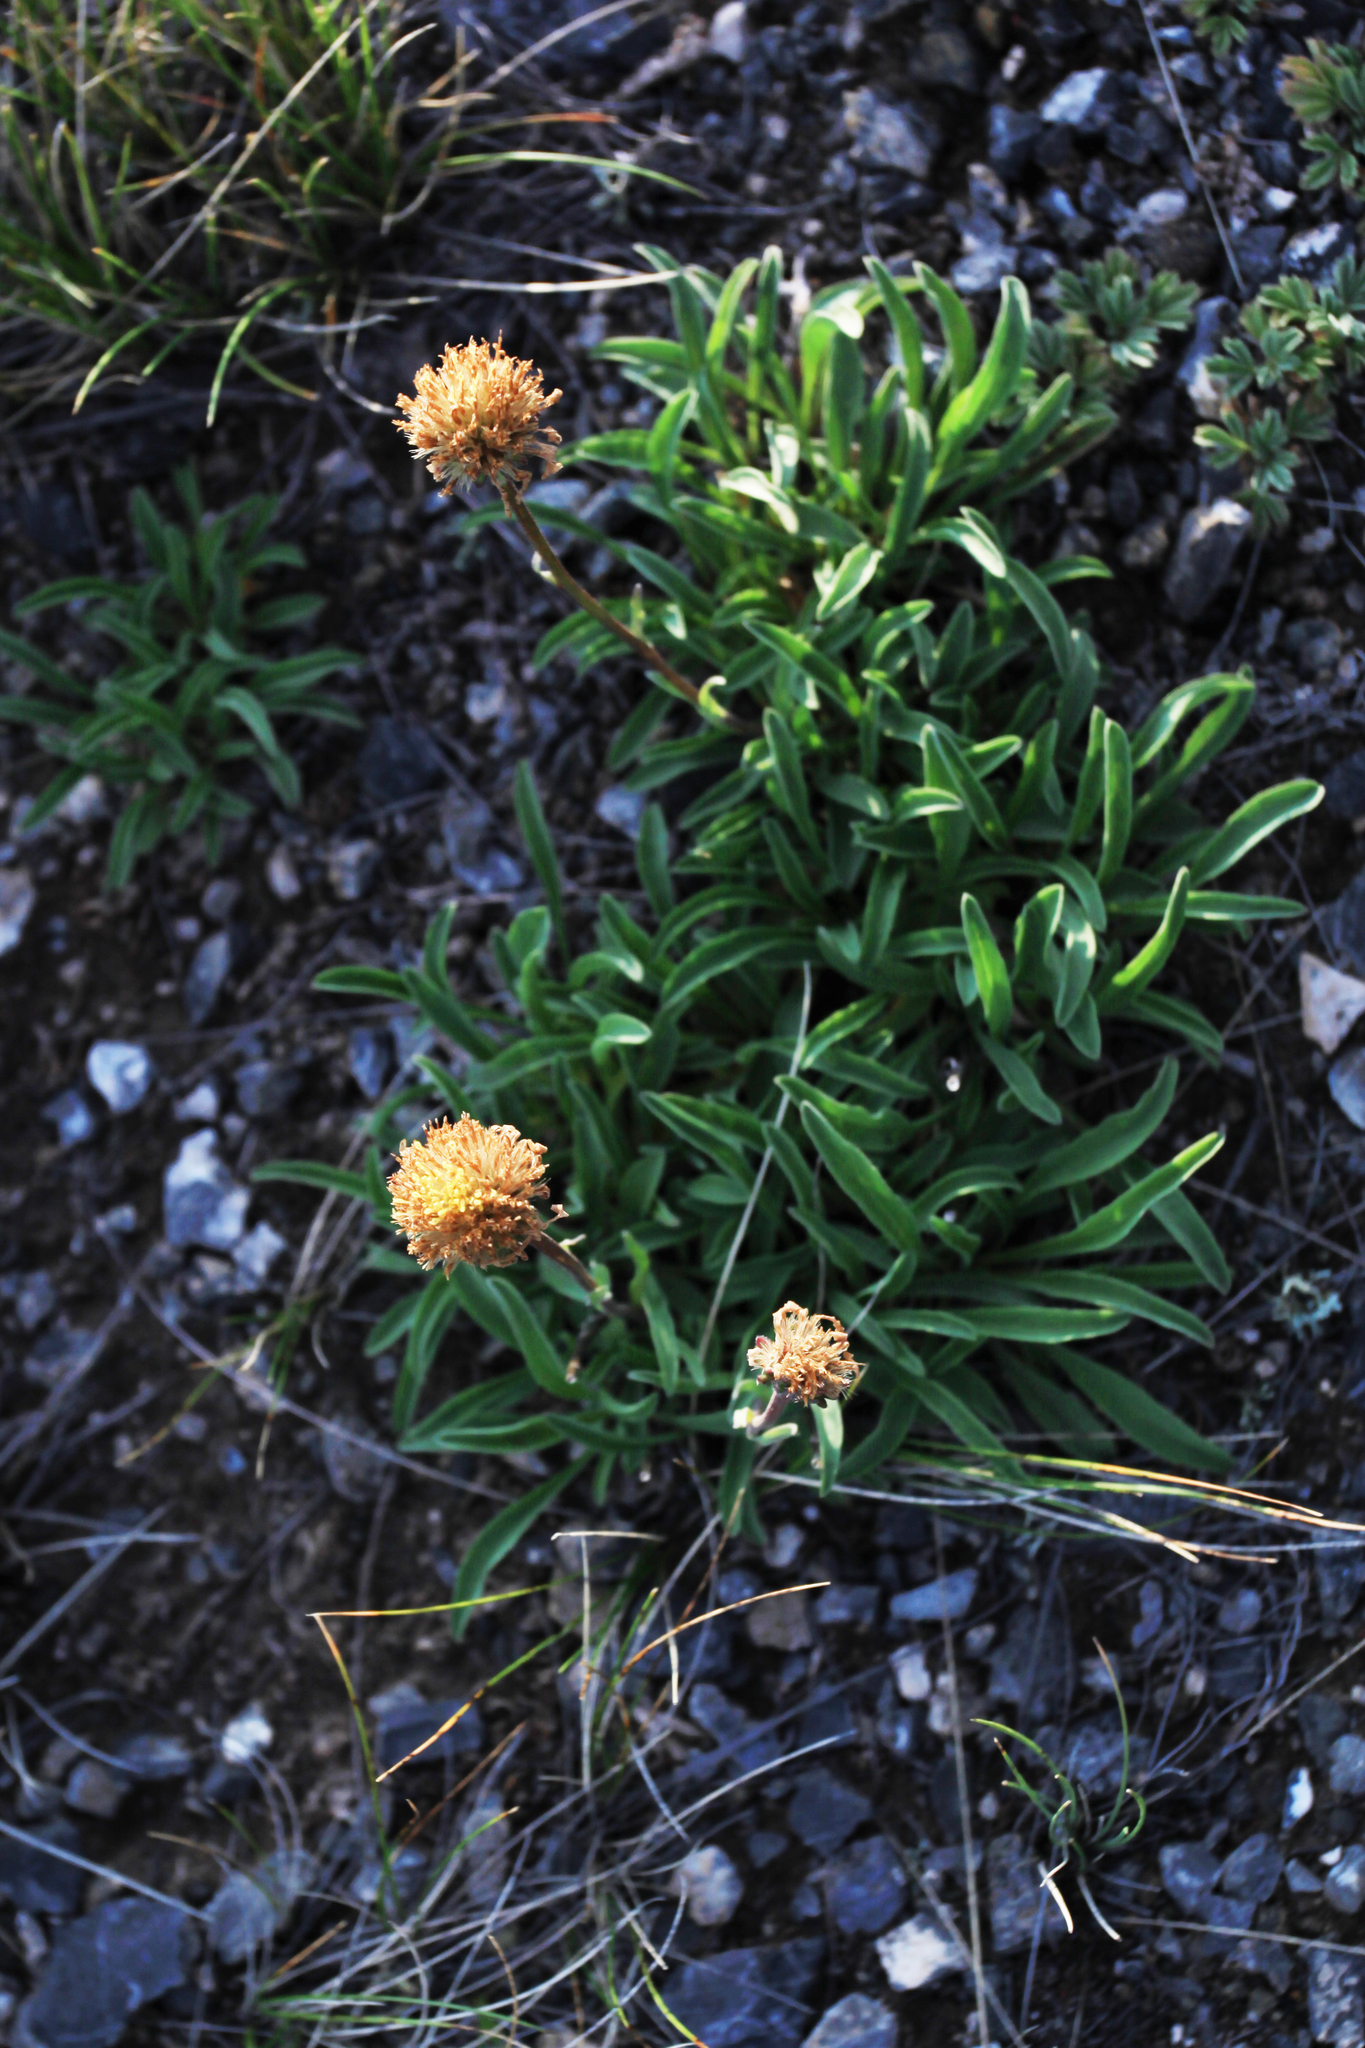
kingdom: Plantae
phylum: Tracheophyta
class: Magnoliopsida
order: Asterales
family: Asteraceae
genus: Aster
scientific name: Aster alpinus
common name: Alpine aster
